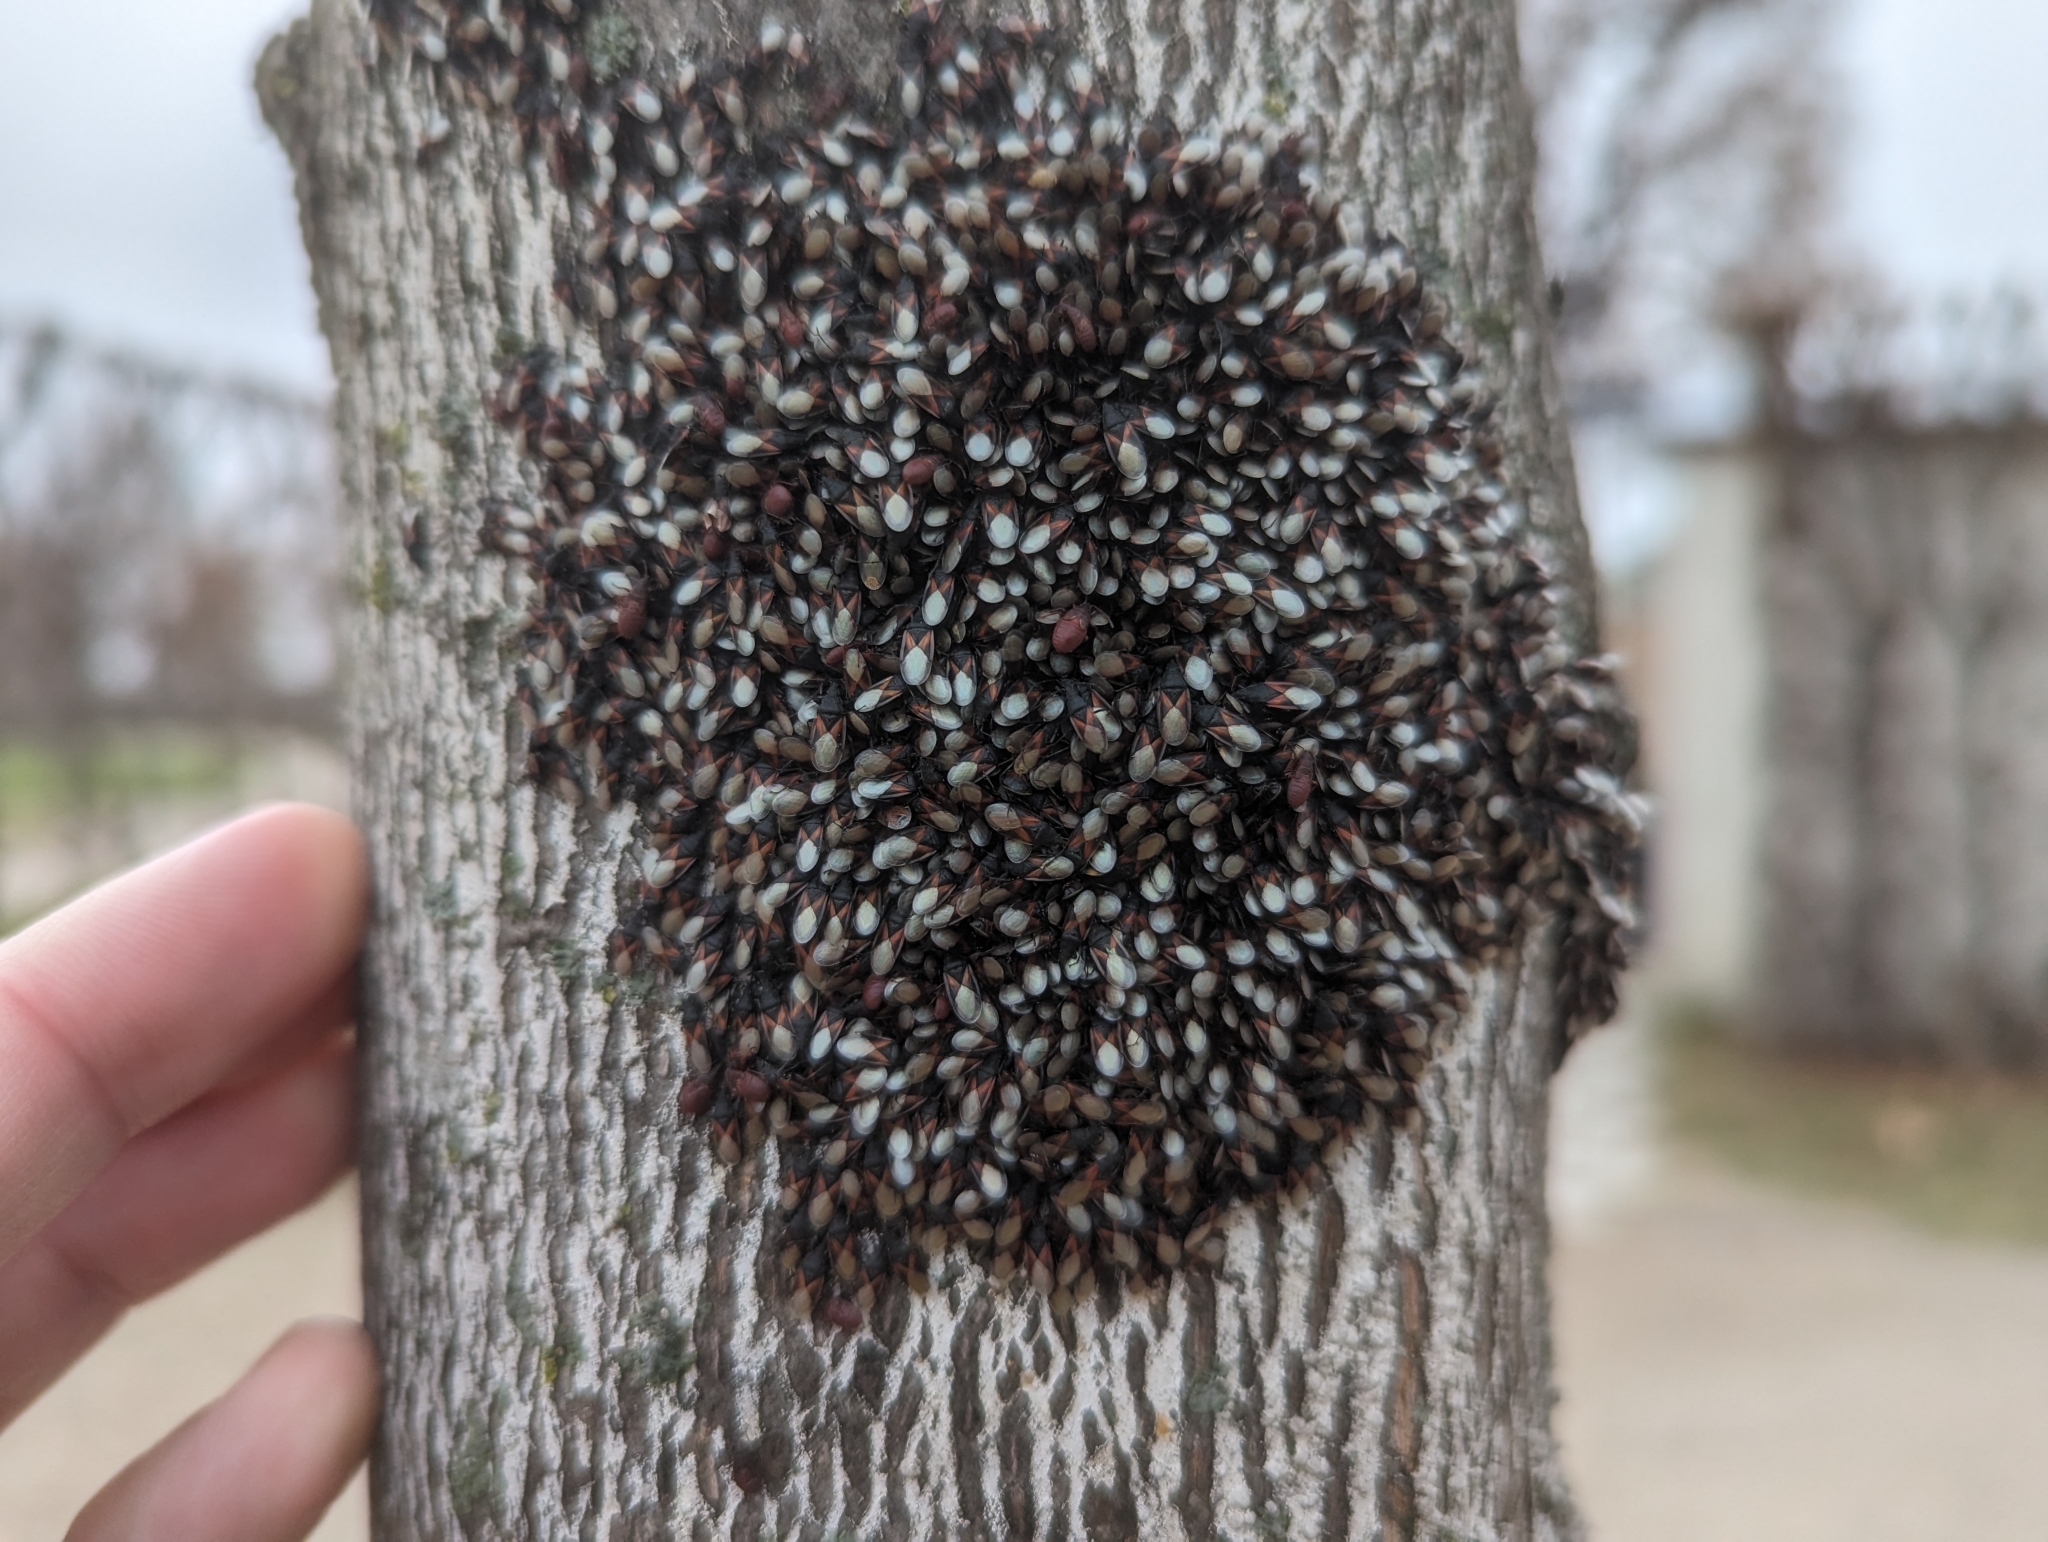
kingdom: Animalia
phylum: Arthropoda
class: Insecta
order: Hemiptera
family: Oxycarenidae
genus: Oxycarenus
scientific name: Oxycarenus lavaterae
